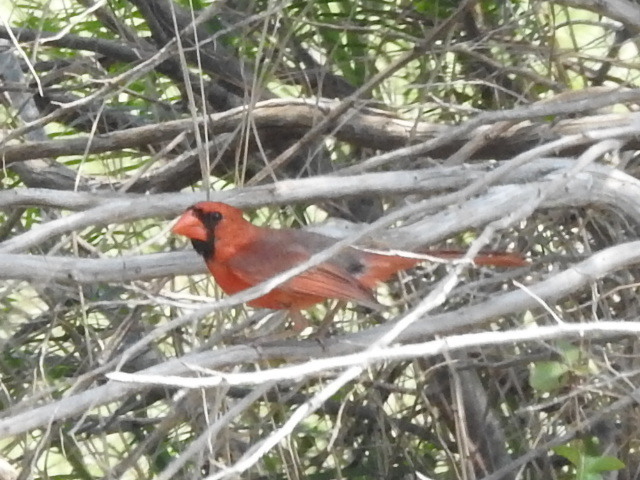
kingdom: Animalia
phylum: Chordata
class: Aves
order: Passeriformes
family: Cardinalidae
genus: Cardinalis
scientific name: Cardinalis cardinalis
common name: Northern cardinal
